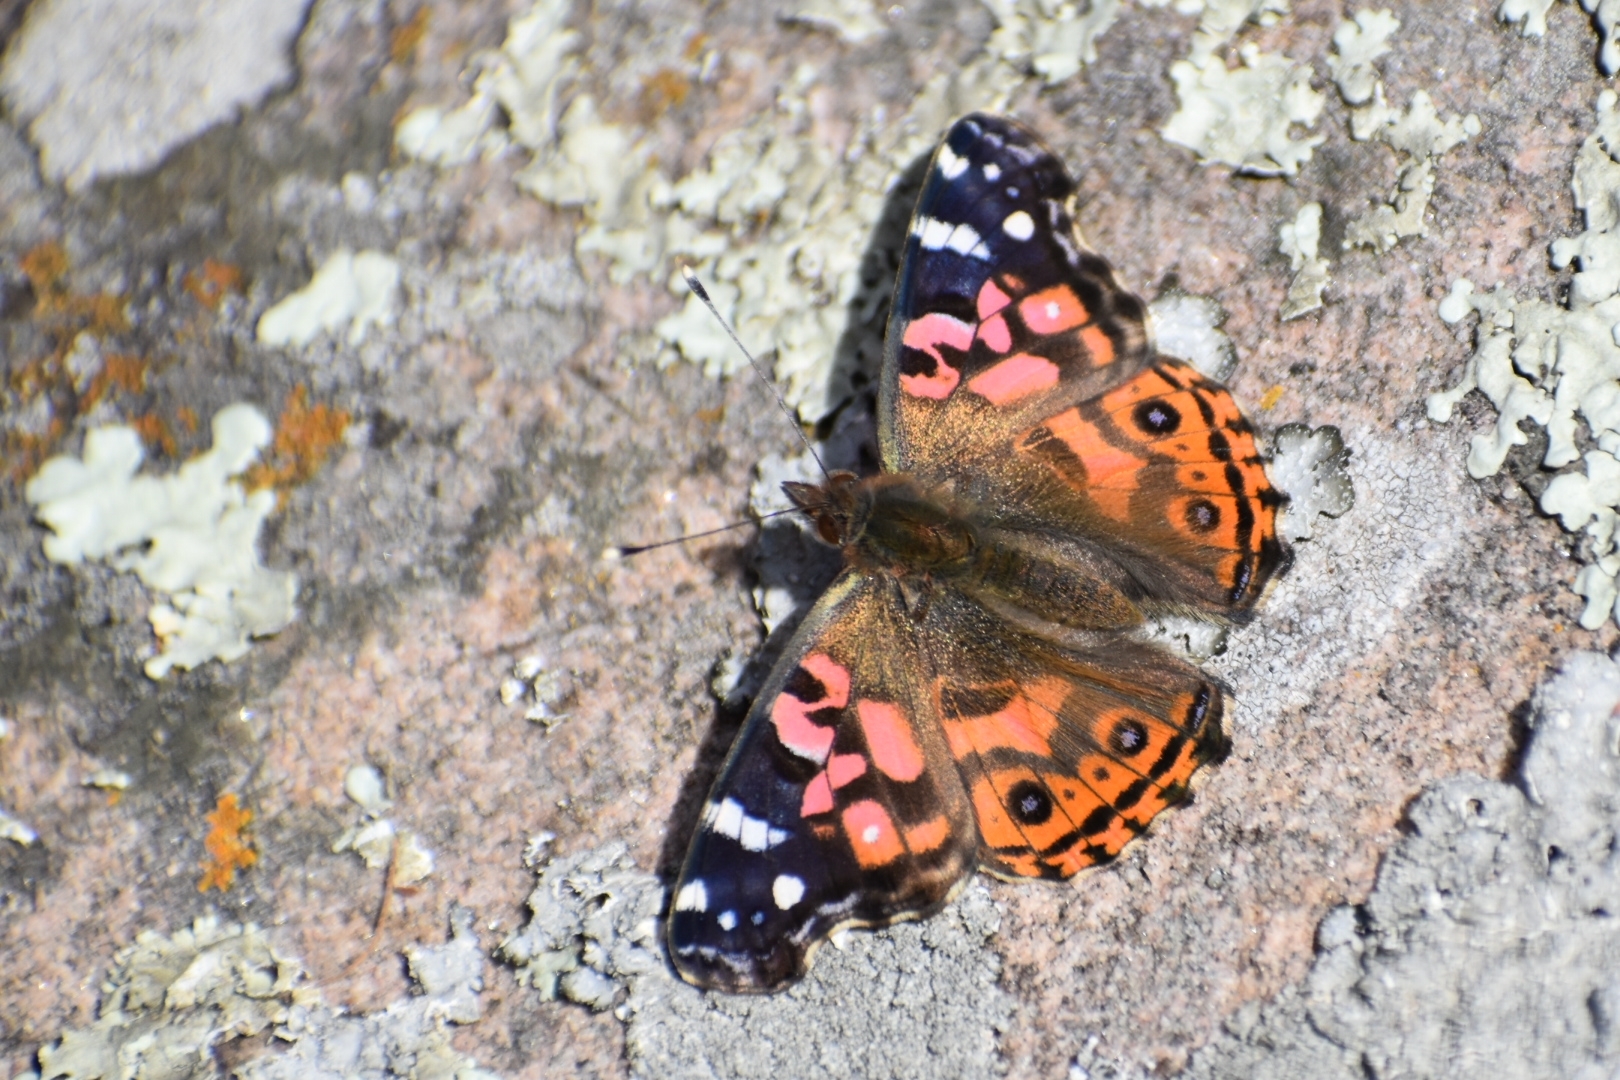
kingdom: Animalia
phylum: Arthropoda
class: Insecta
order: Lepidoptera
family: Nymphalidae
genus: Vanessa
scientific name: Vanessa braziliensis
